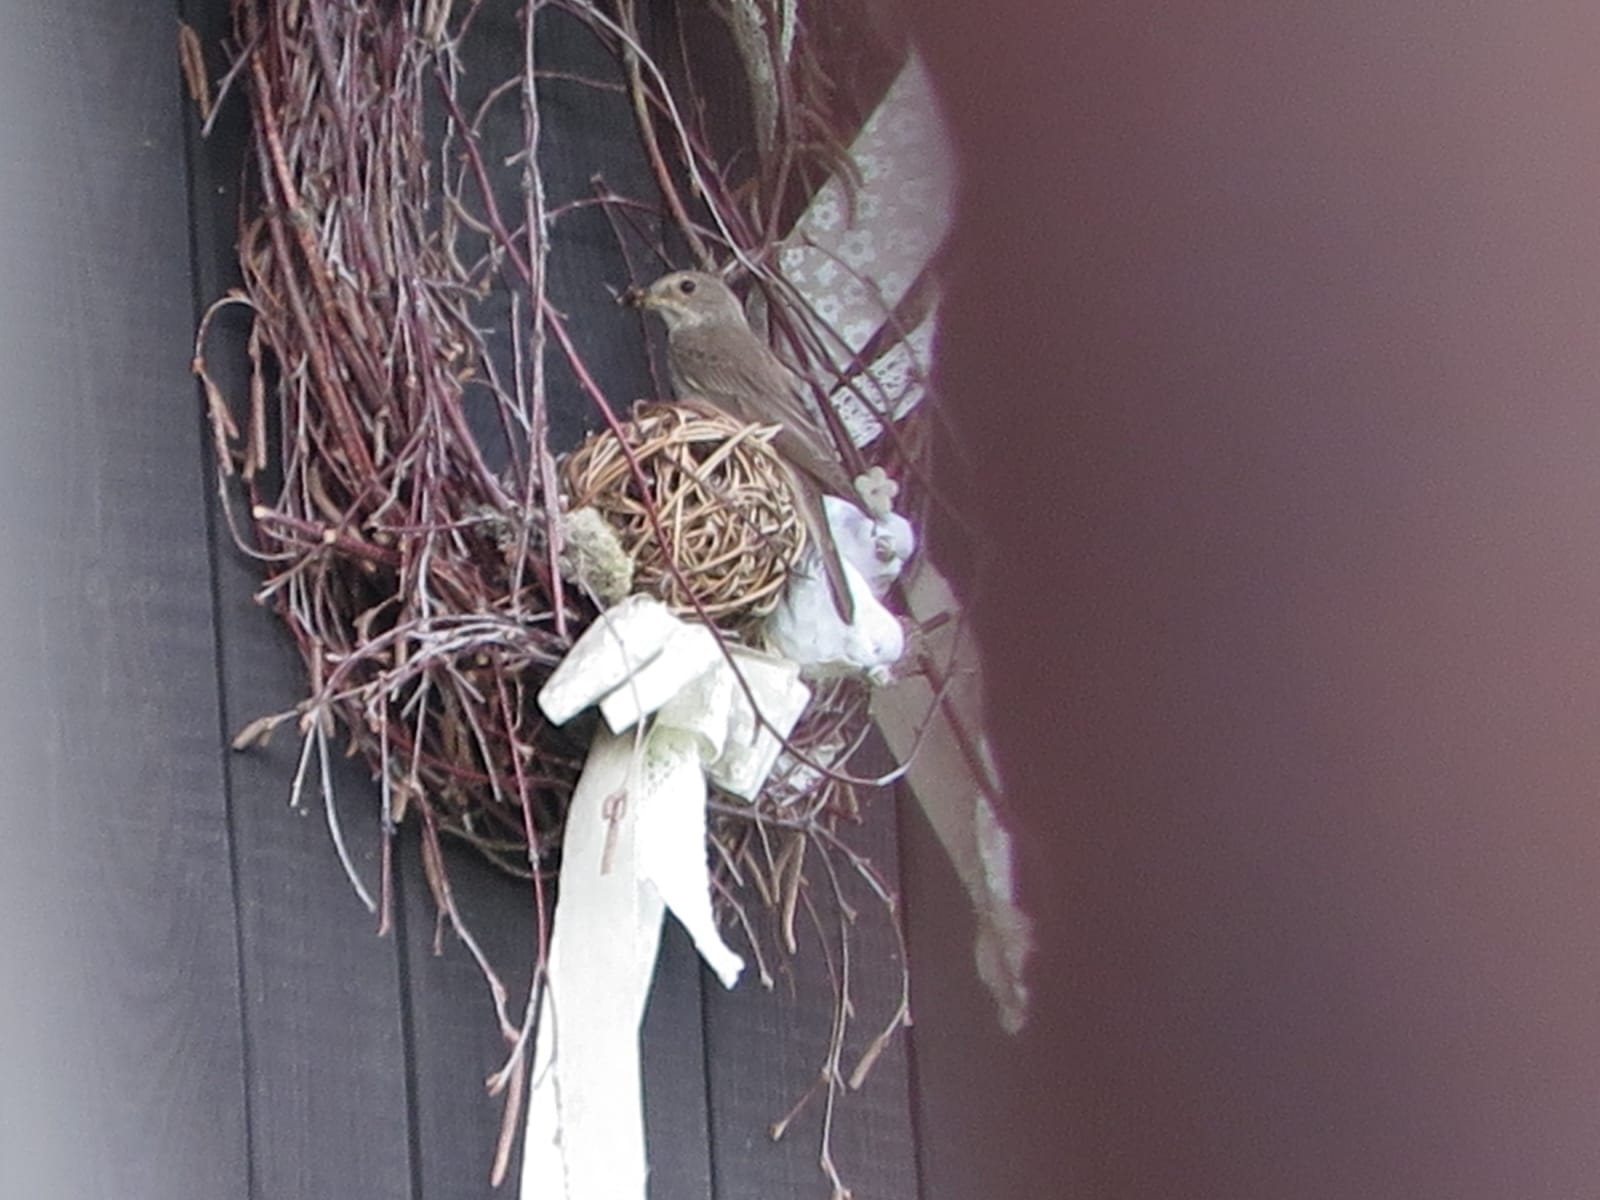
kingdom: Animalia
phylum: Chordata
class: Aves
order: Passeriformes
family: Muscicapidae
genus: Muscicapa
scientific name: Muscicapa striata
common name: Spotted flycatcher
